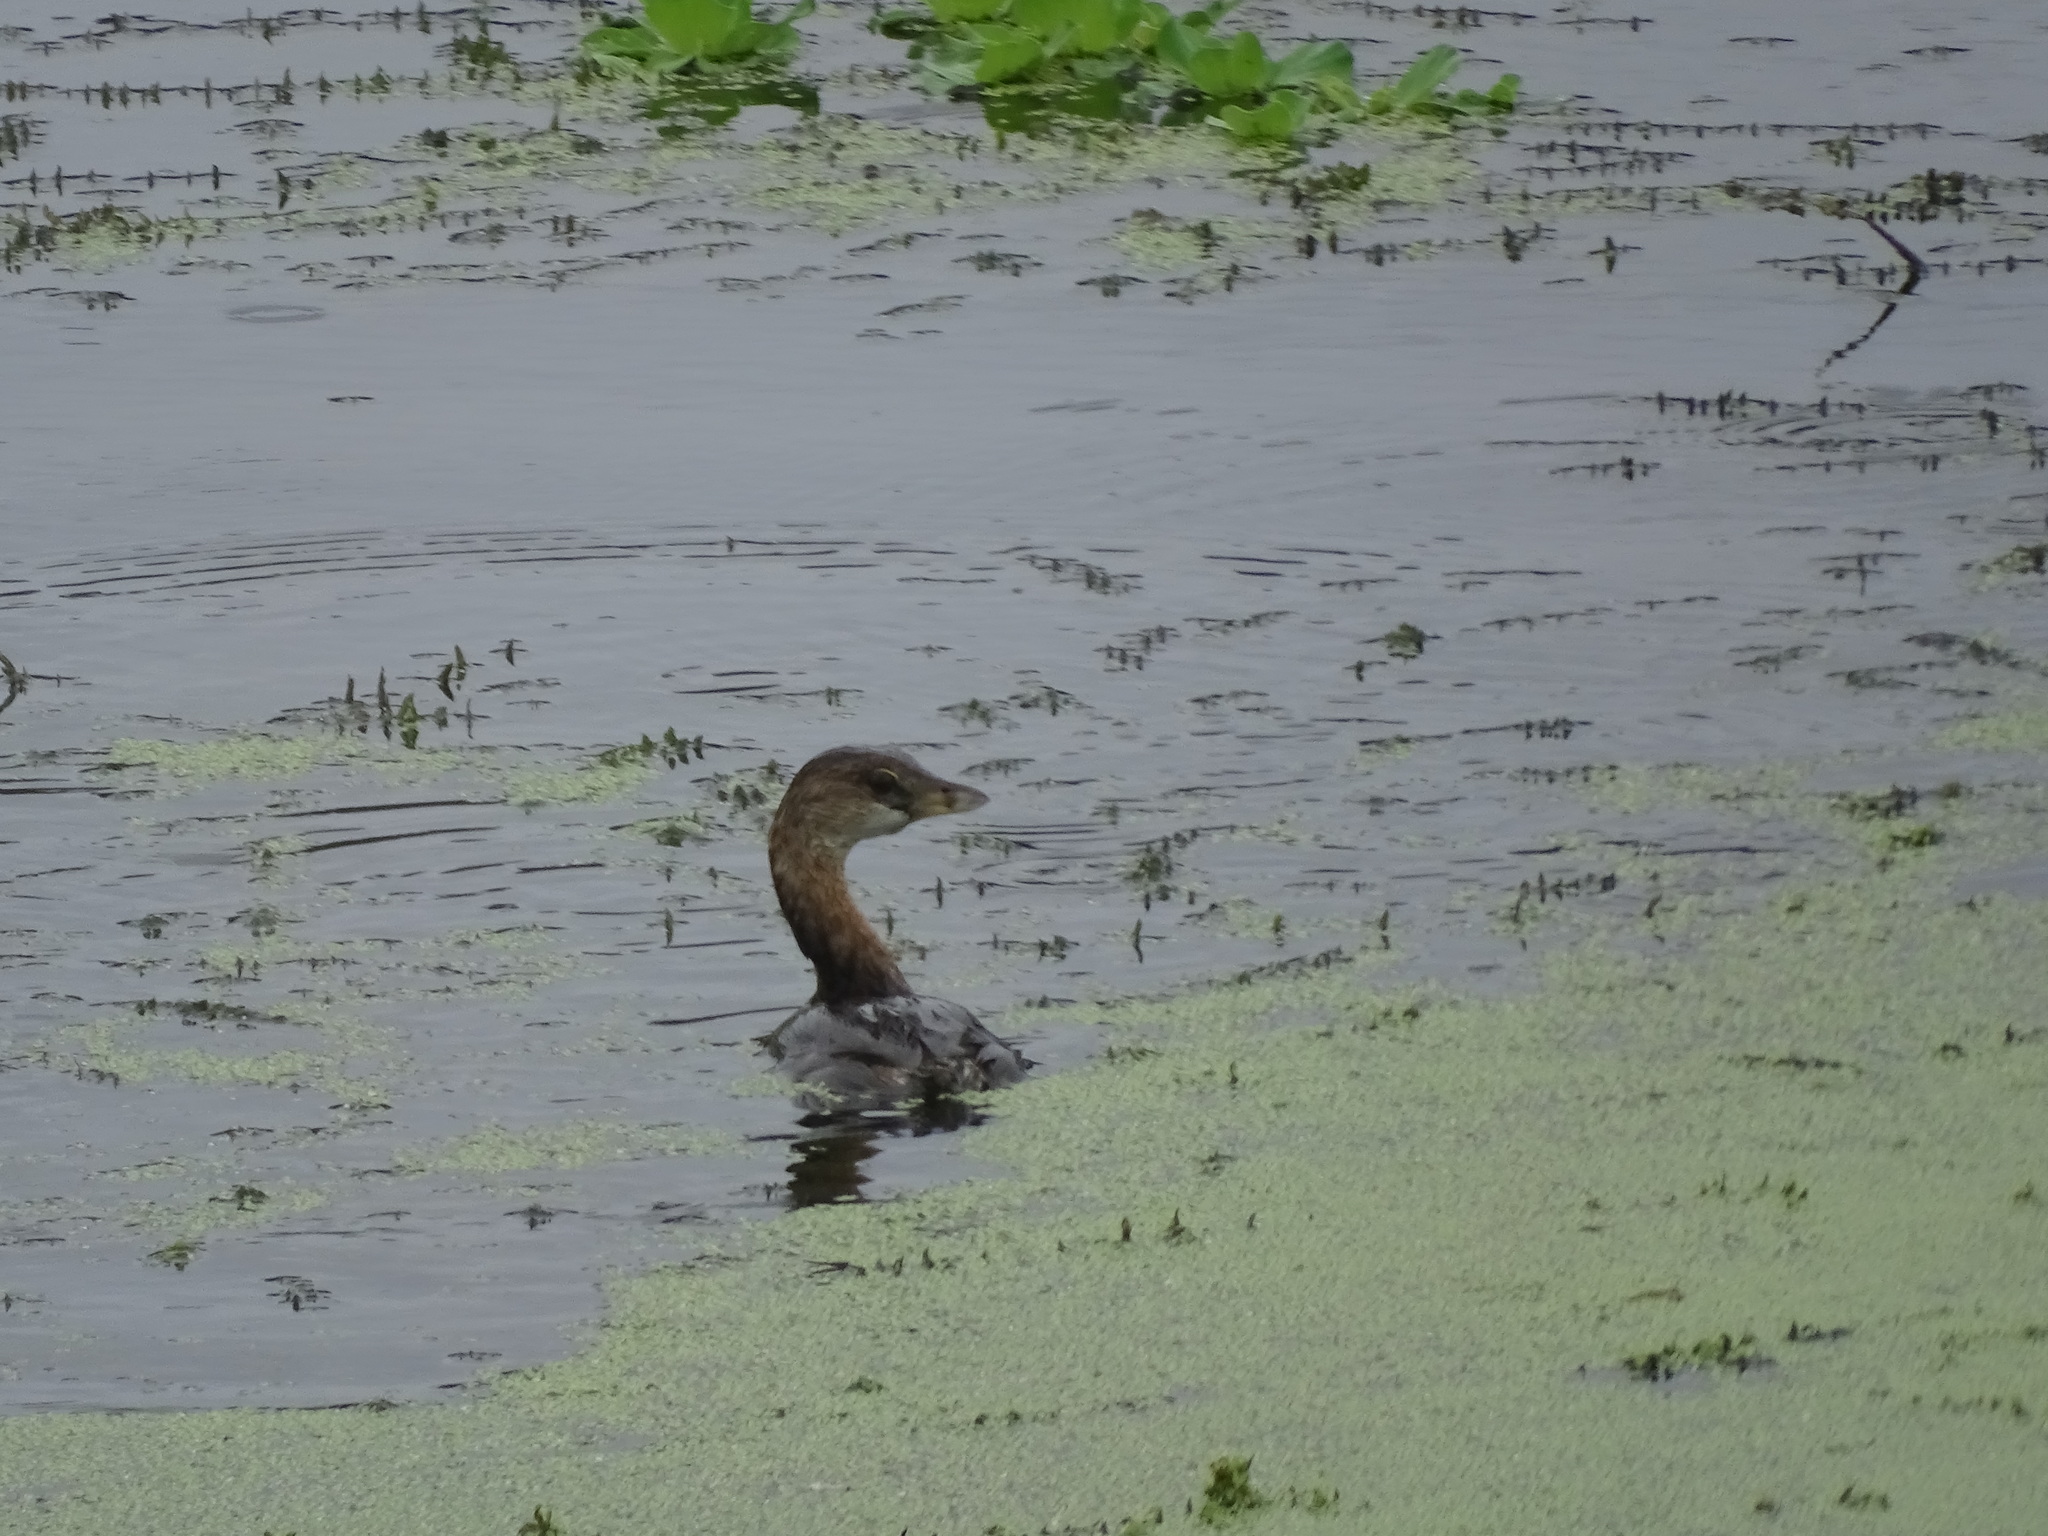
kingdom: Animalia
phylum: Chordata
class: Aves
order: Podicipediformes
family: Podicipedidae
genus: Podilymbus
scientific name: Podilymbus podiceps
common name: Pied-billed grebe
